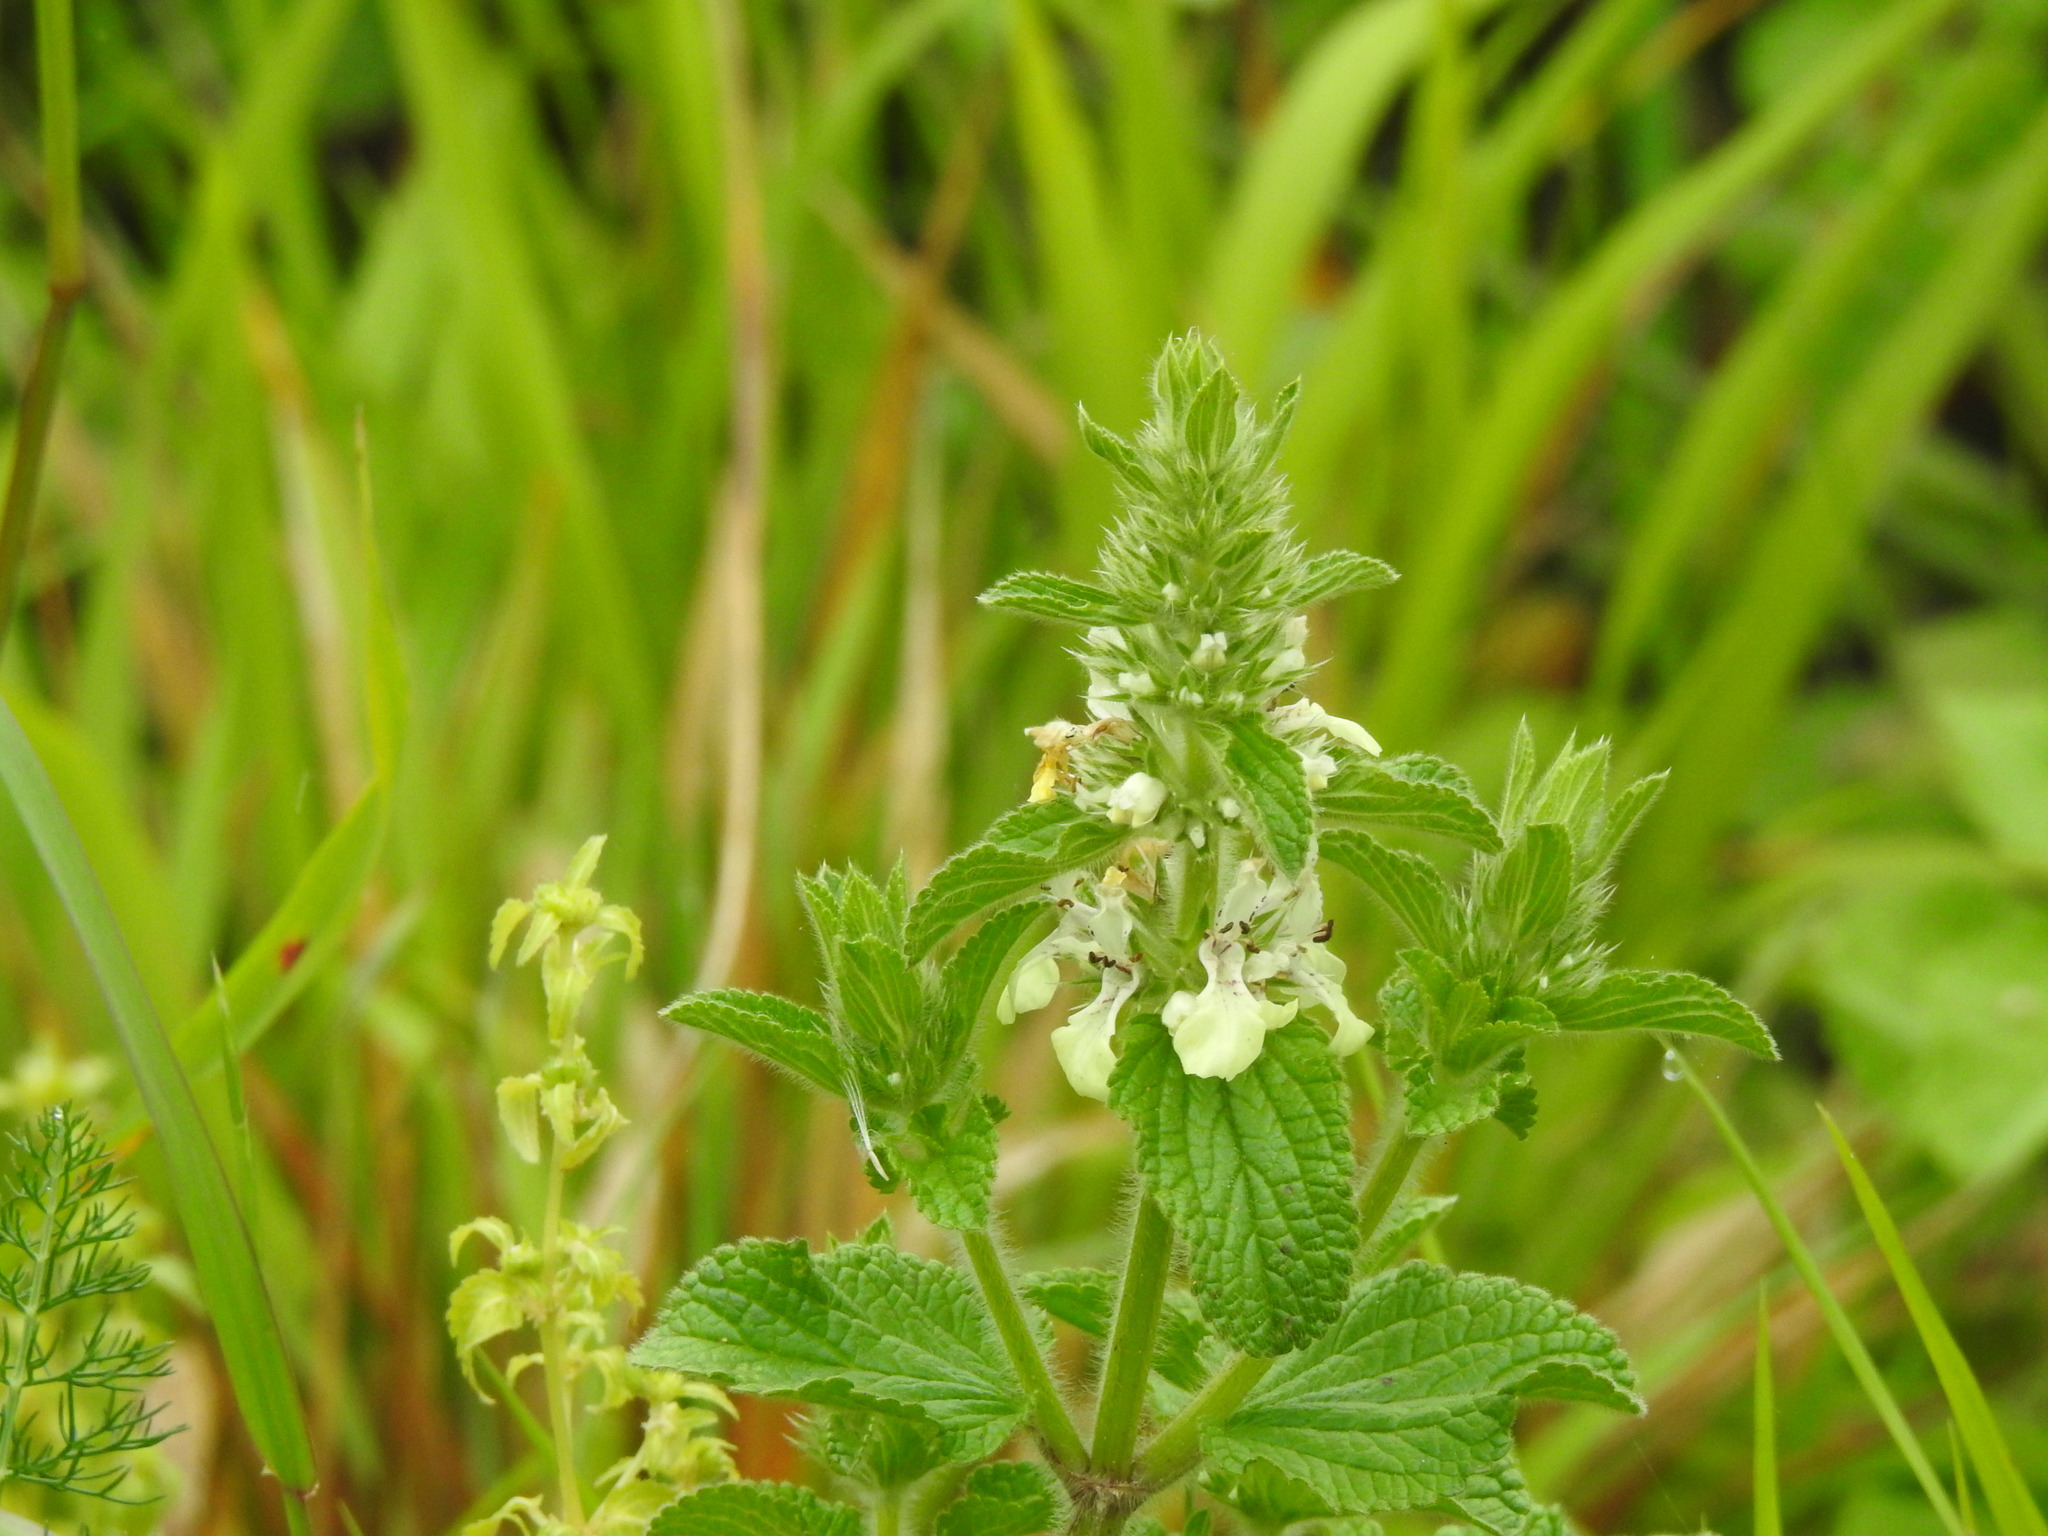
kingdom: Plantae
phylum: Tracheophyta
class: Magnoliopsida
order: Lamiales
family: Lamiaceae
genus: Stachys
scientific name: Stachys ocymastrum
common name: Italian hedgenettle
